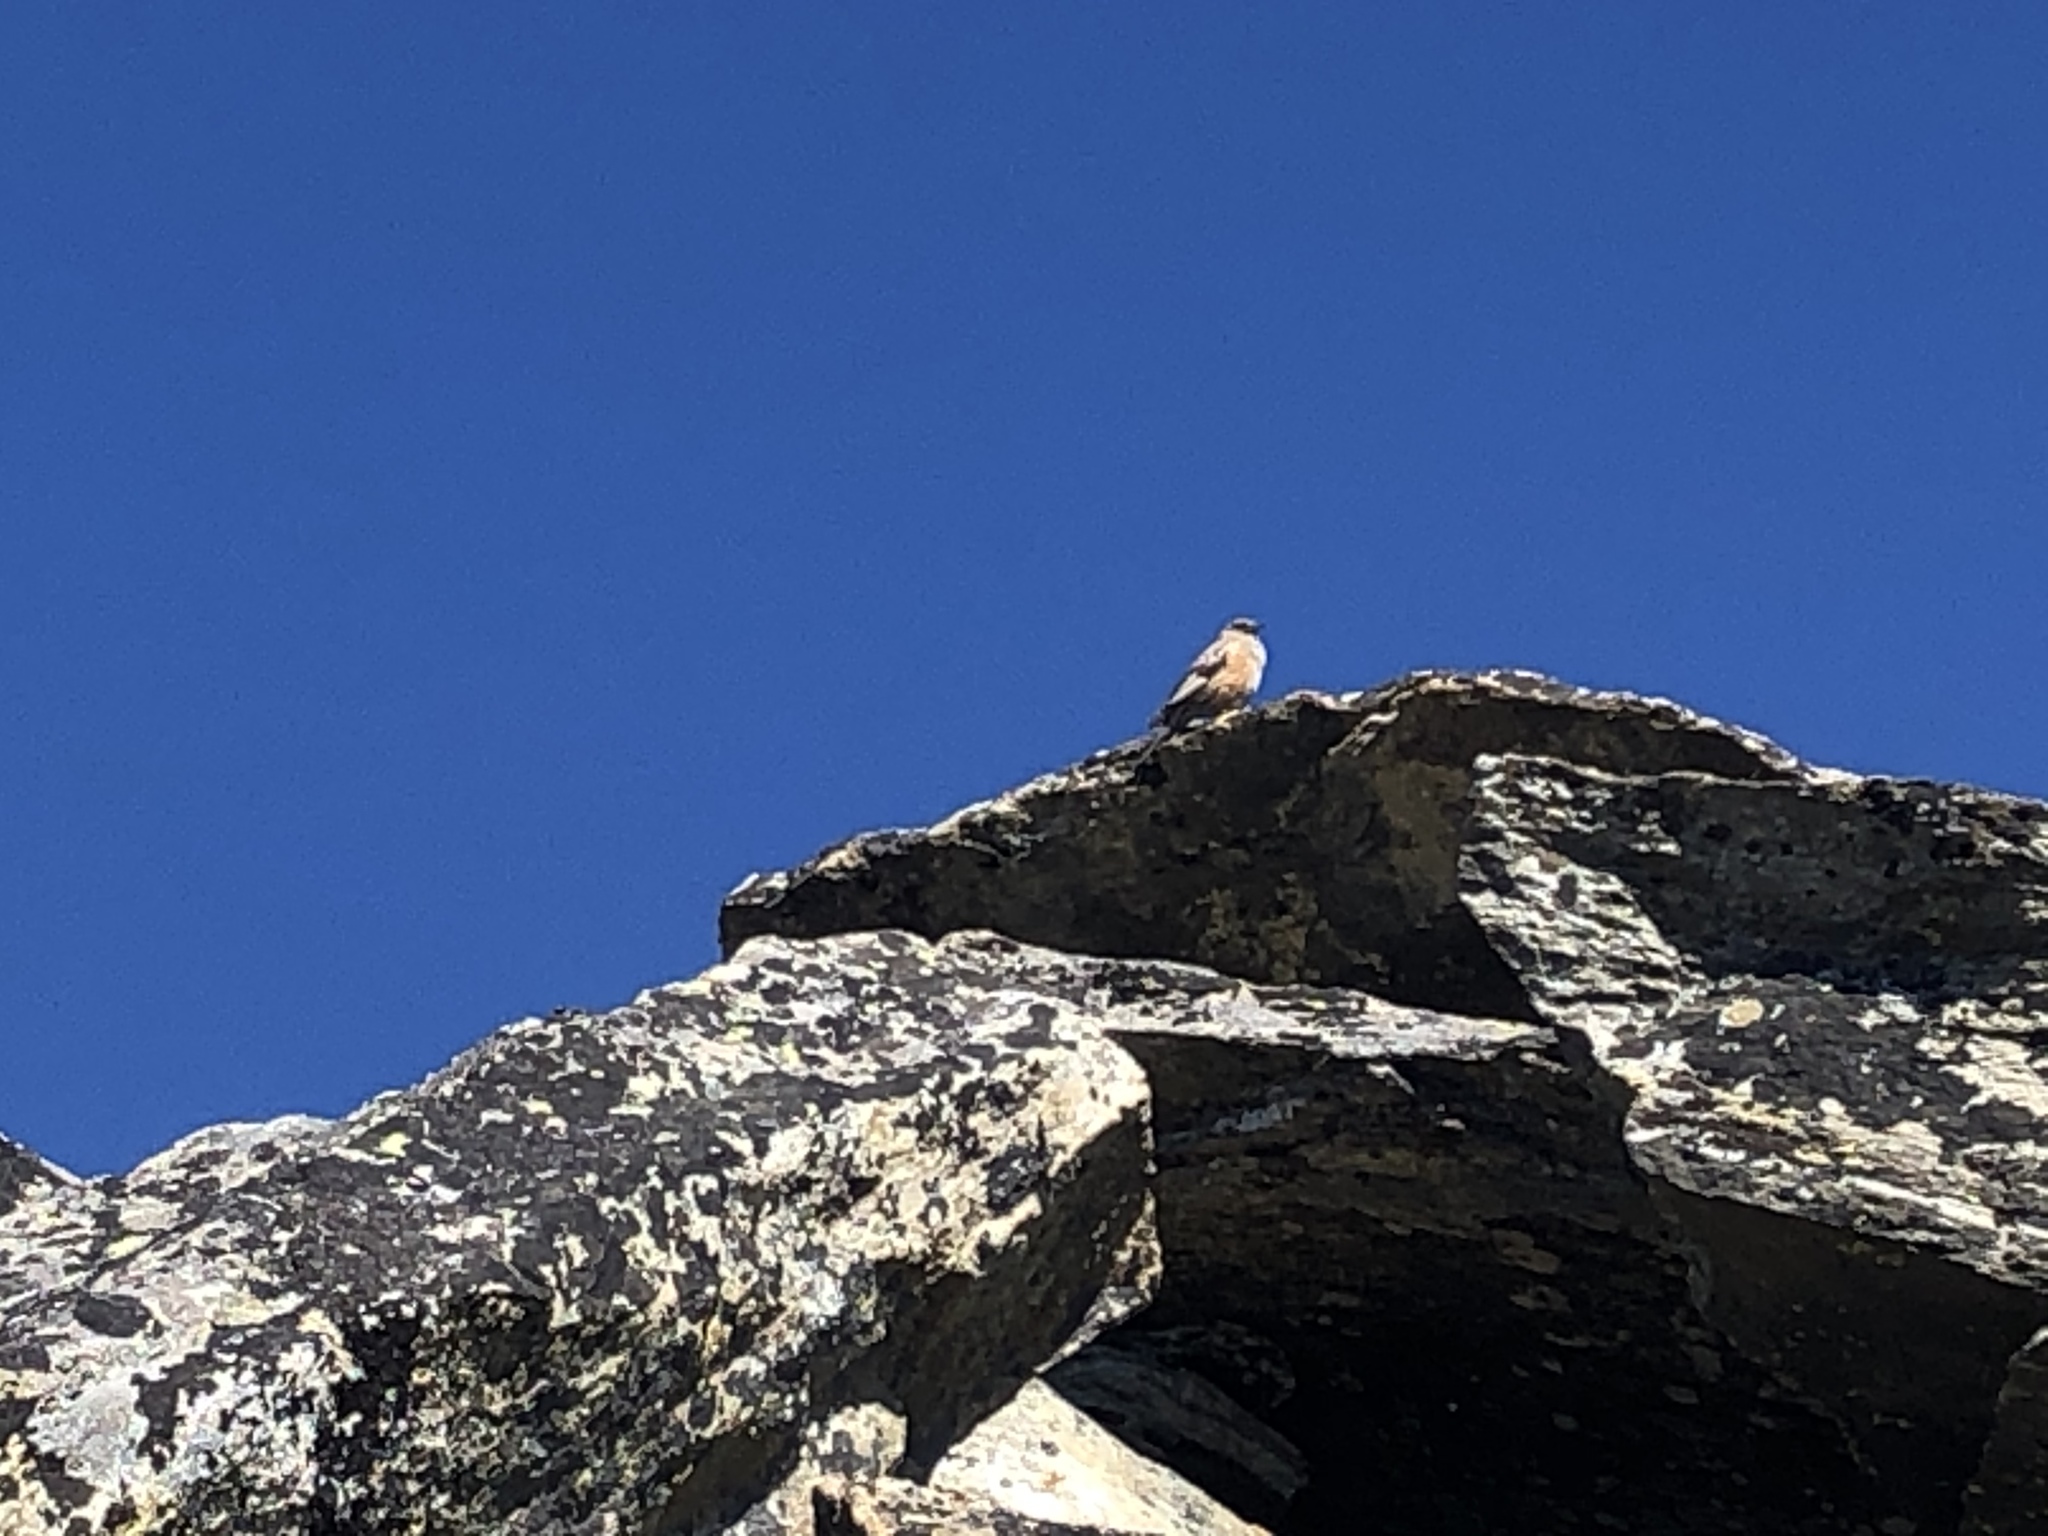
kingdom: Animalia
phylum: Chordata
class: Aves
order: Passeriformes
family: Prunellidae
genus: Prunella
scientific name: Prunella collaris
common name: Alpine accentor
